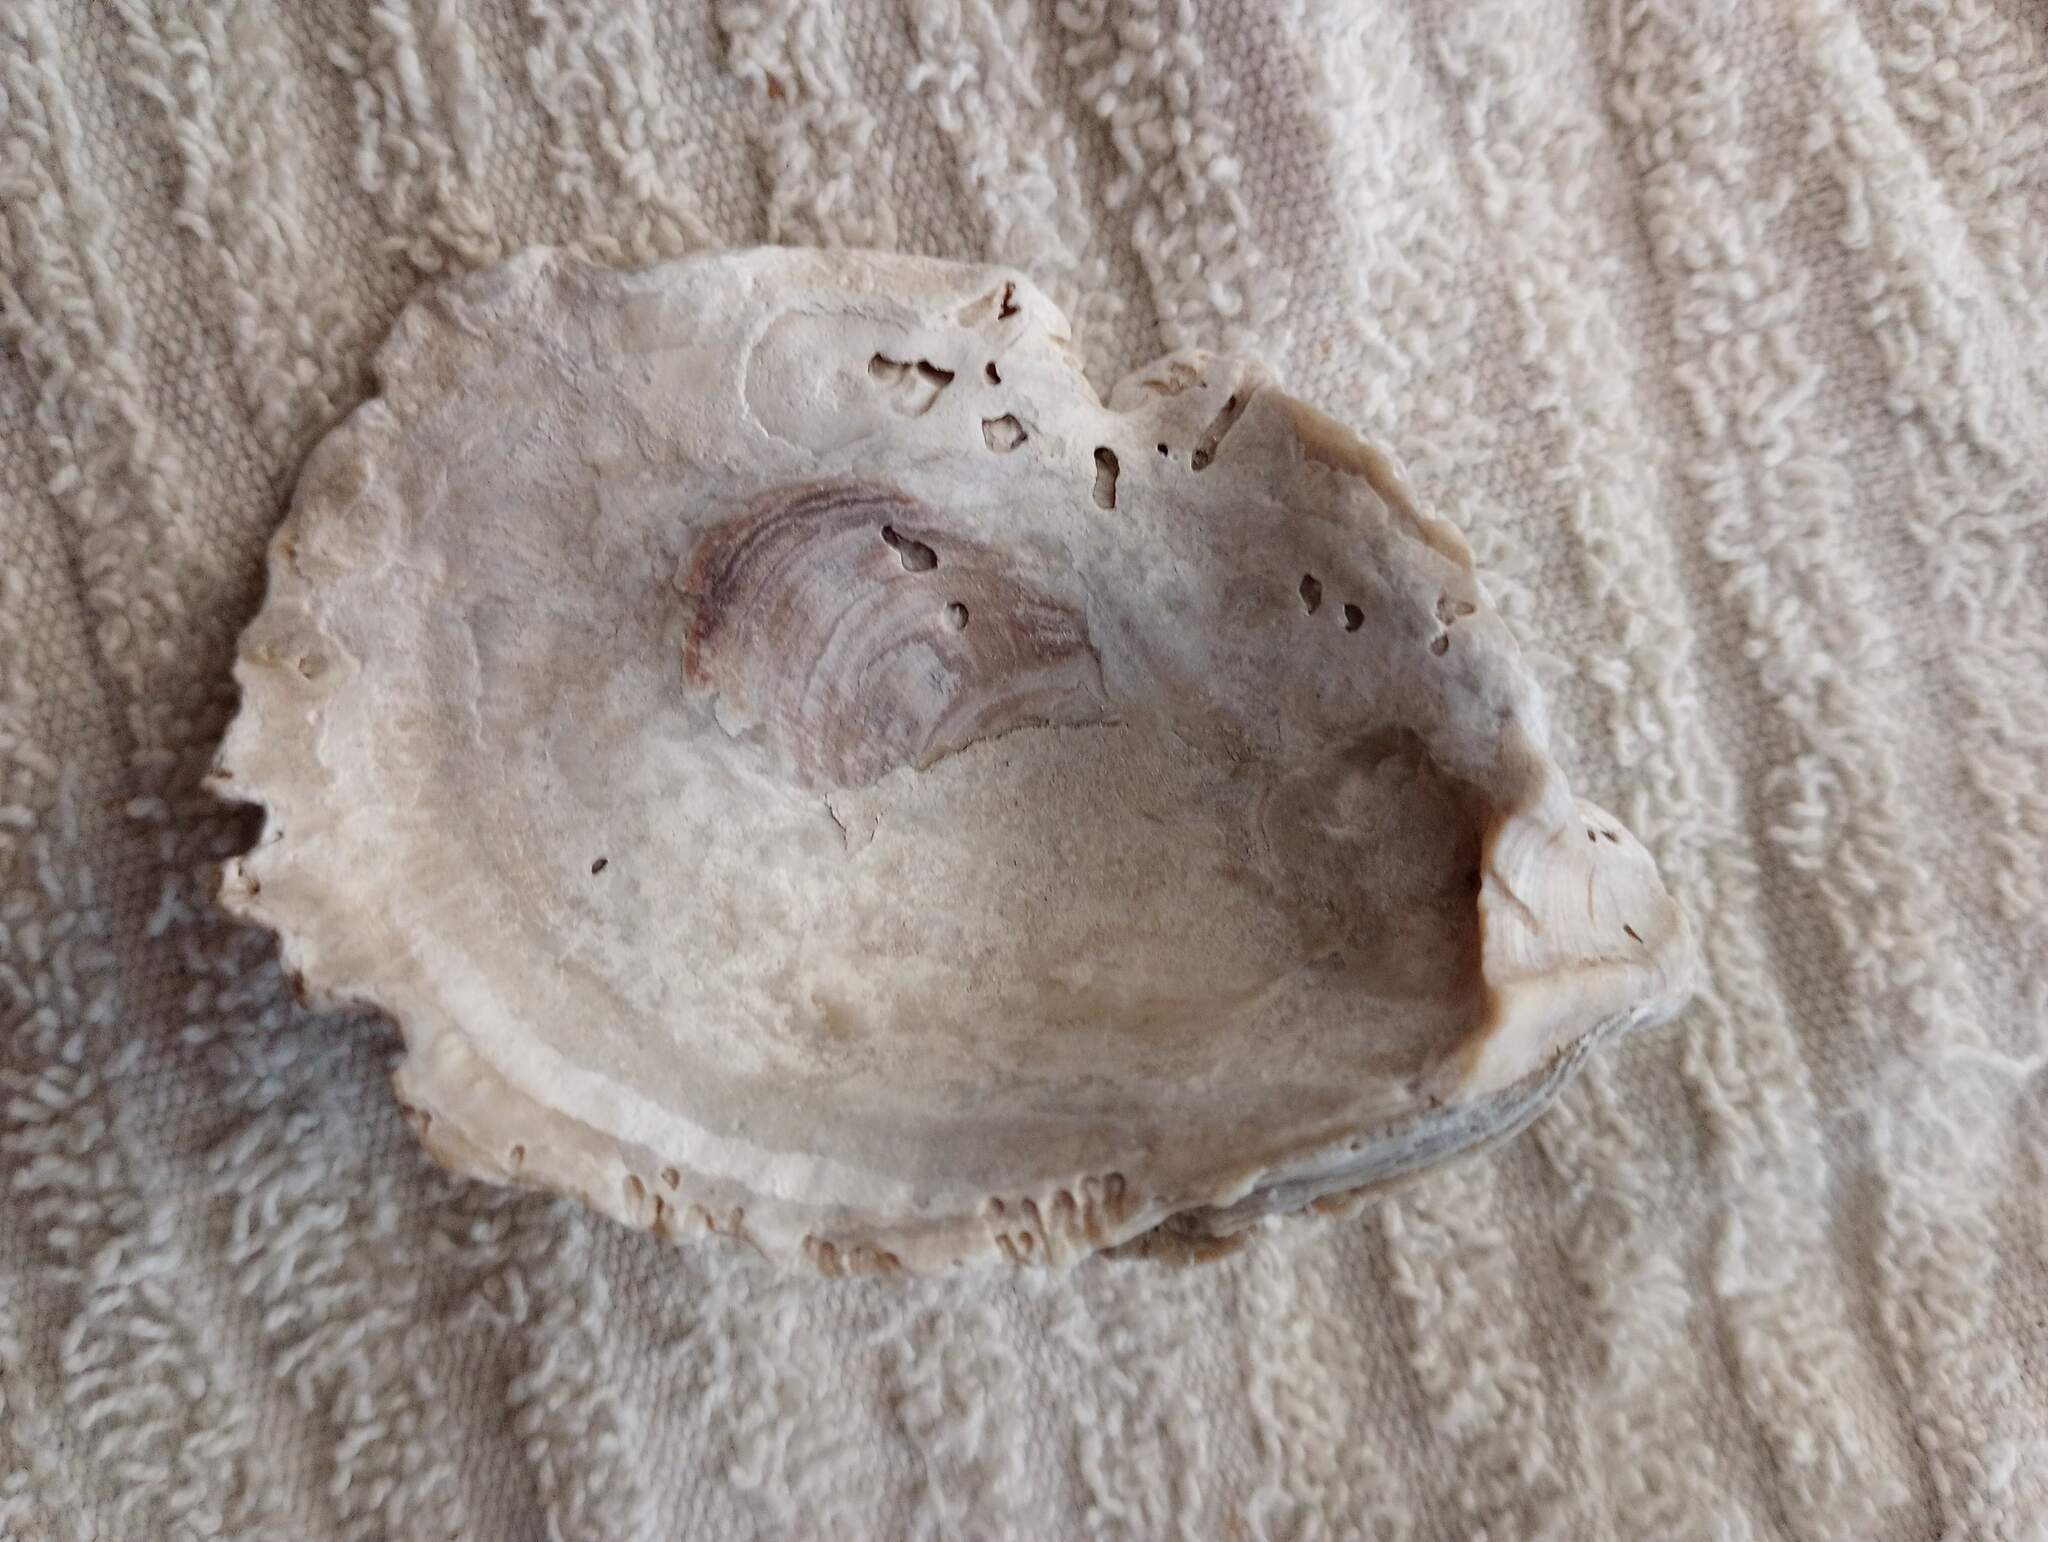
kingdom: Animalia
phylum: Mollusca
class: Bivalvia
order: Ostreida
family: Ostreidae
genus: Crassostrea
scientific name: Crassostrea virginica
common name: American oyster
